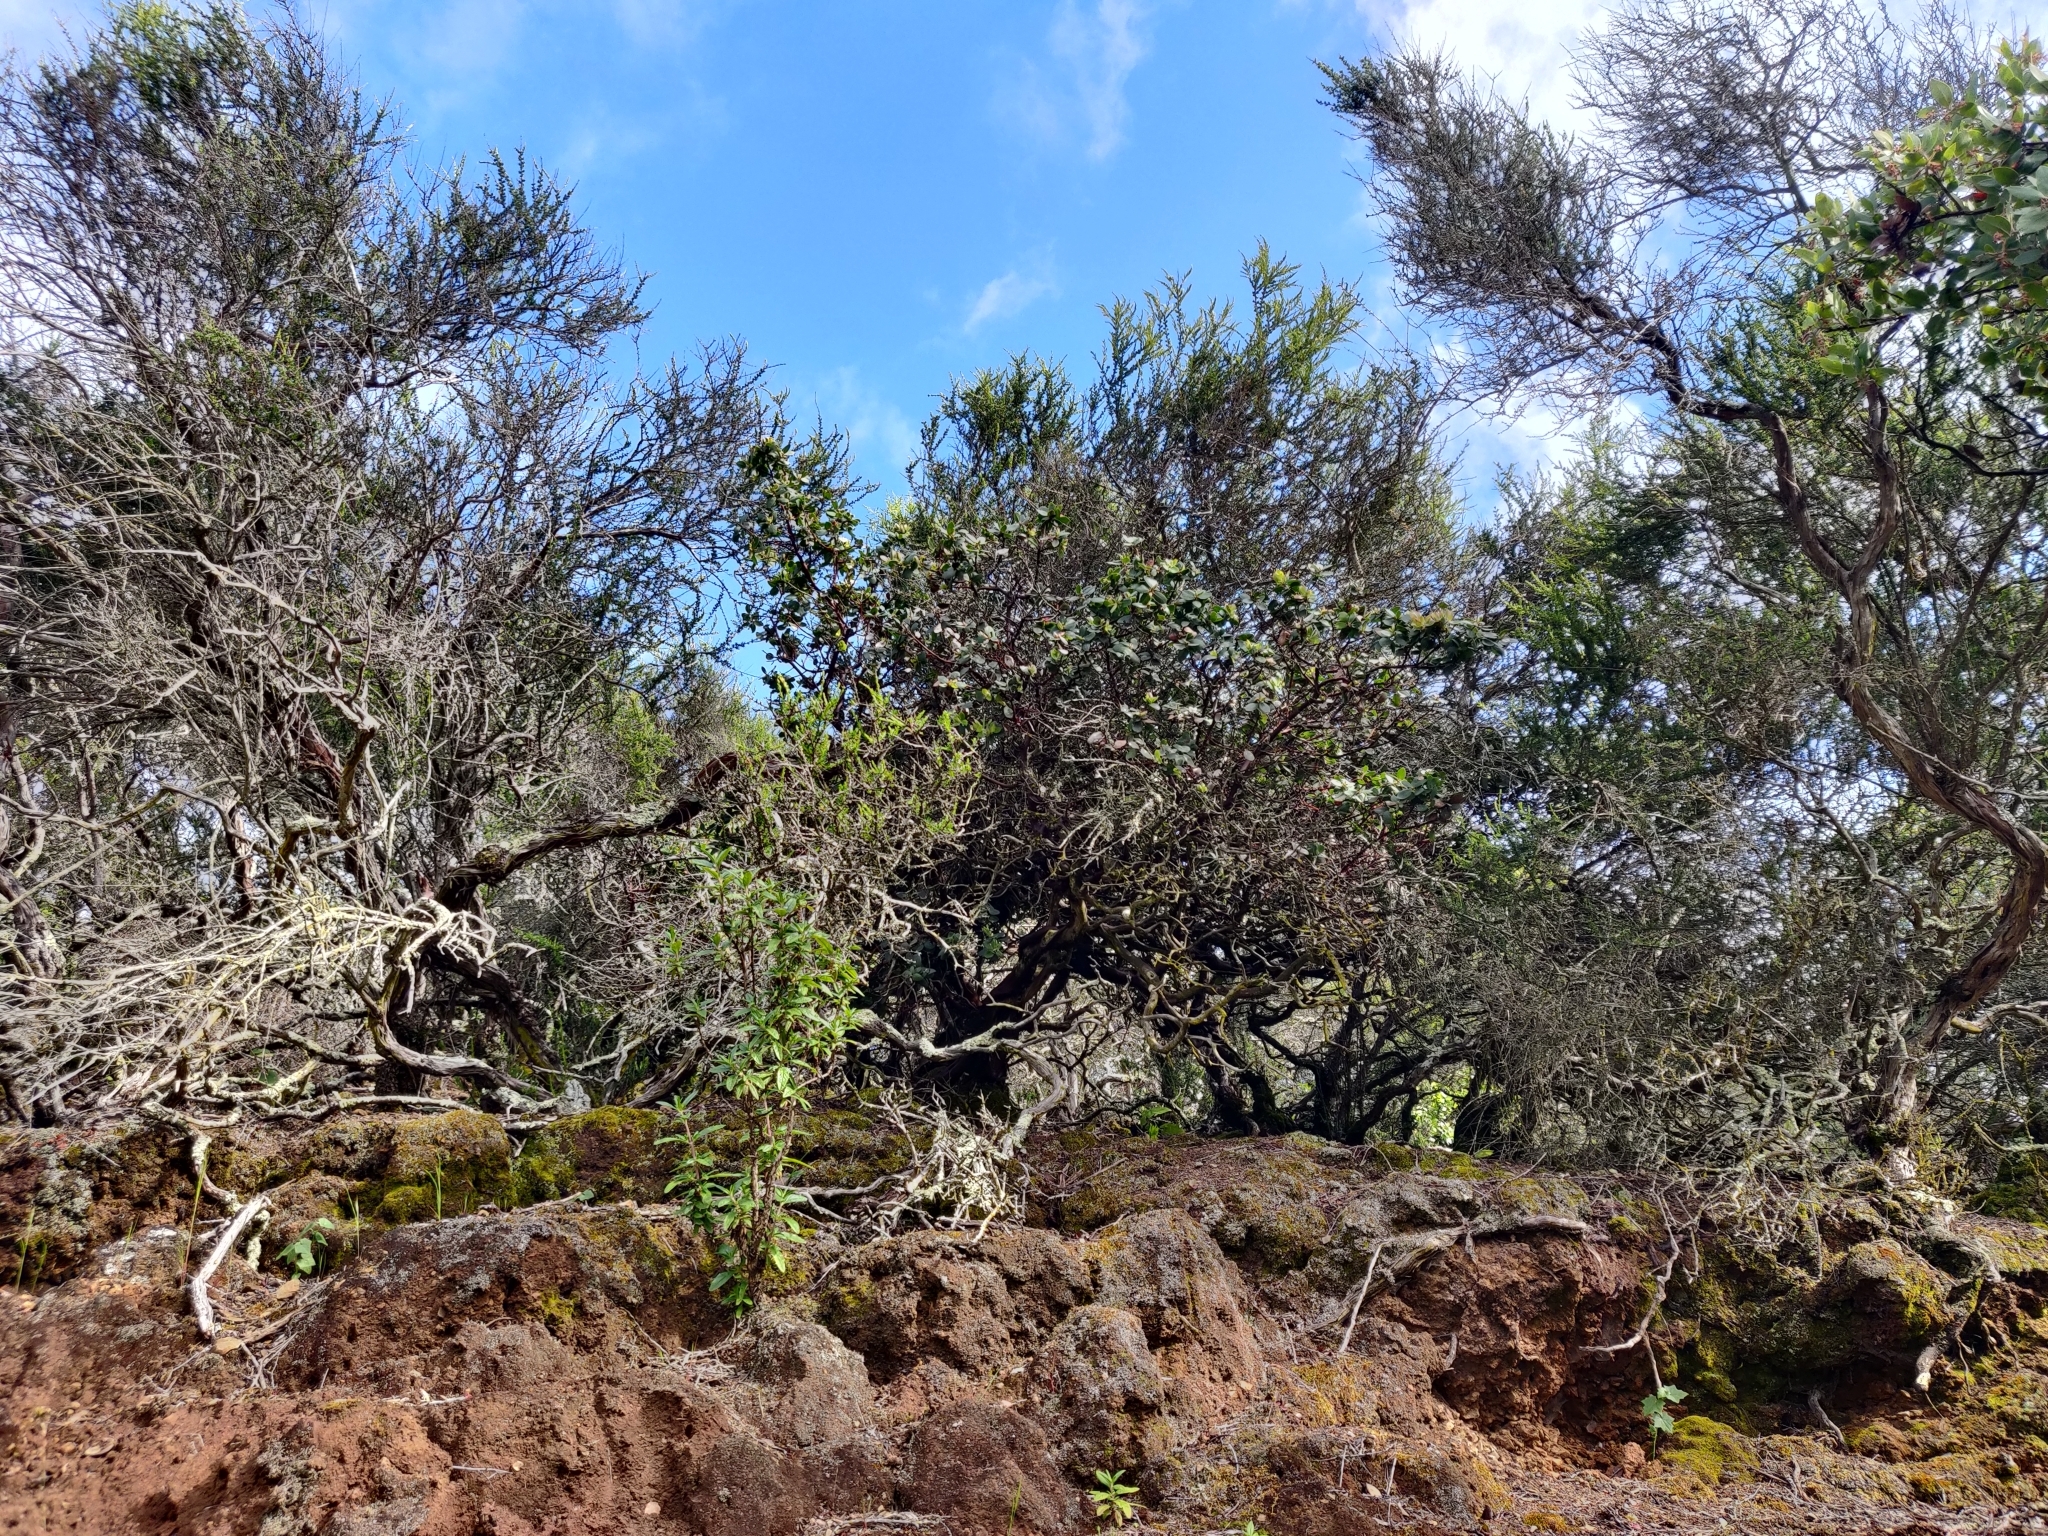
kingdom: Plantae
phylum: Tracheophyta
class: Magnoliopsida
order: Ericales
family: Ericaceae
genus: Arctostaphylos
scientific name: Arctostaphylos crustacea
